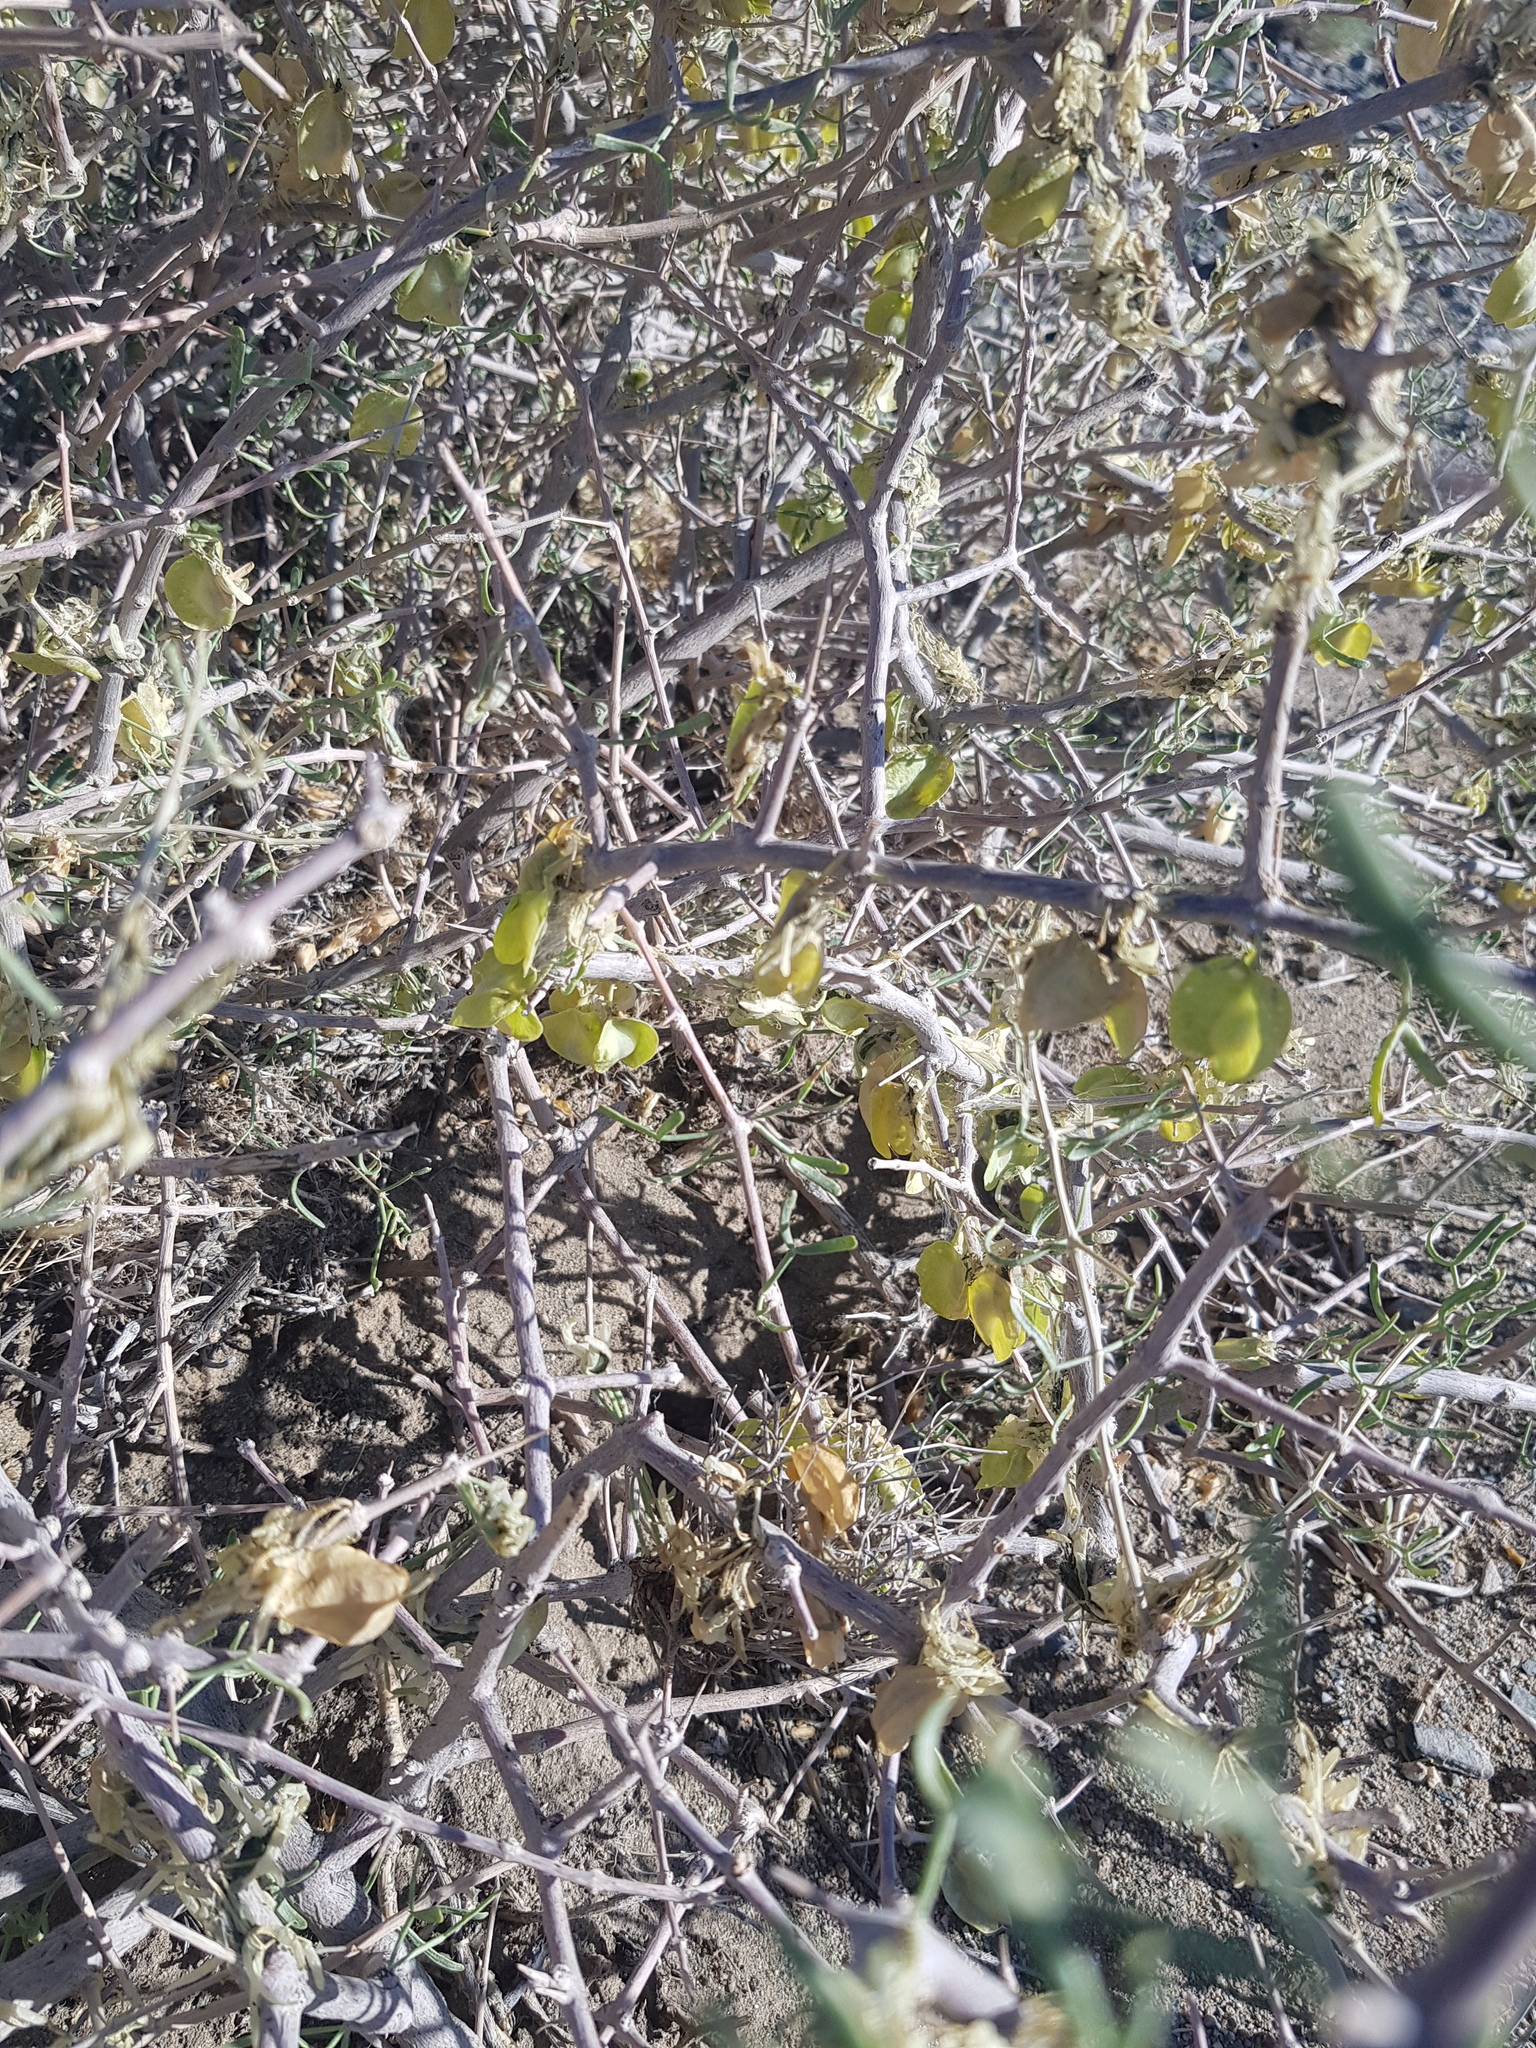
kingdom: Plantae
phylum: Tracheophyta
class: Magnoliopsida
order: Zygophyllales
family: Zygophyllaceae
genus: Zygophyllum
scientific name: Zygophyllum xanthoxylum
